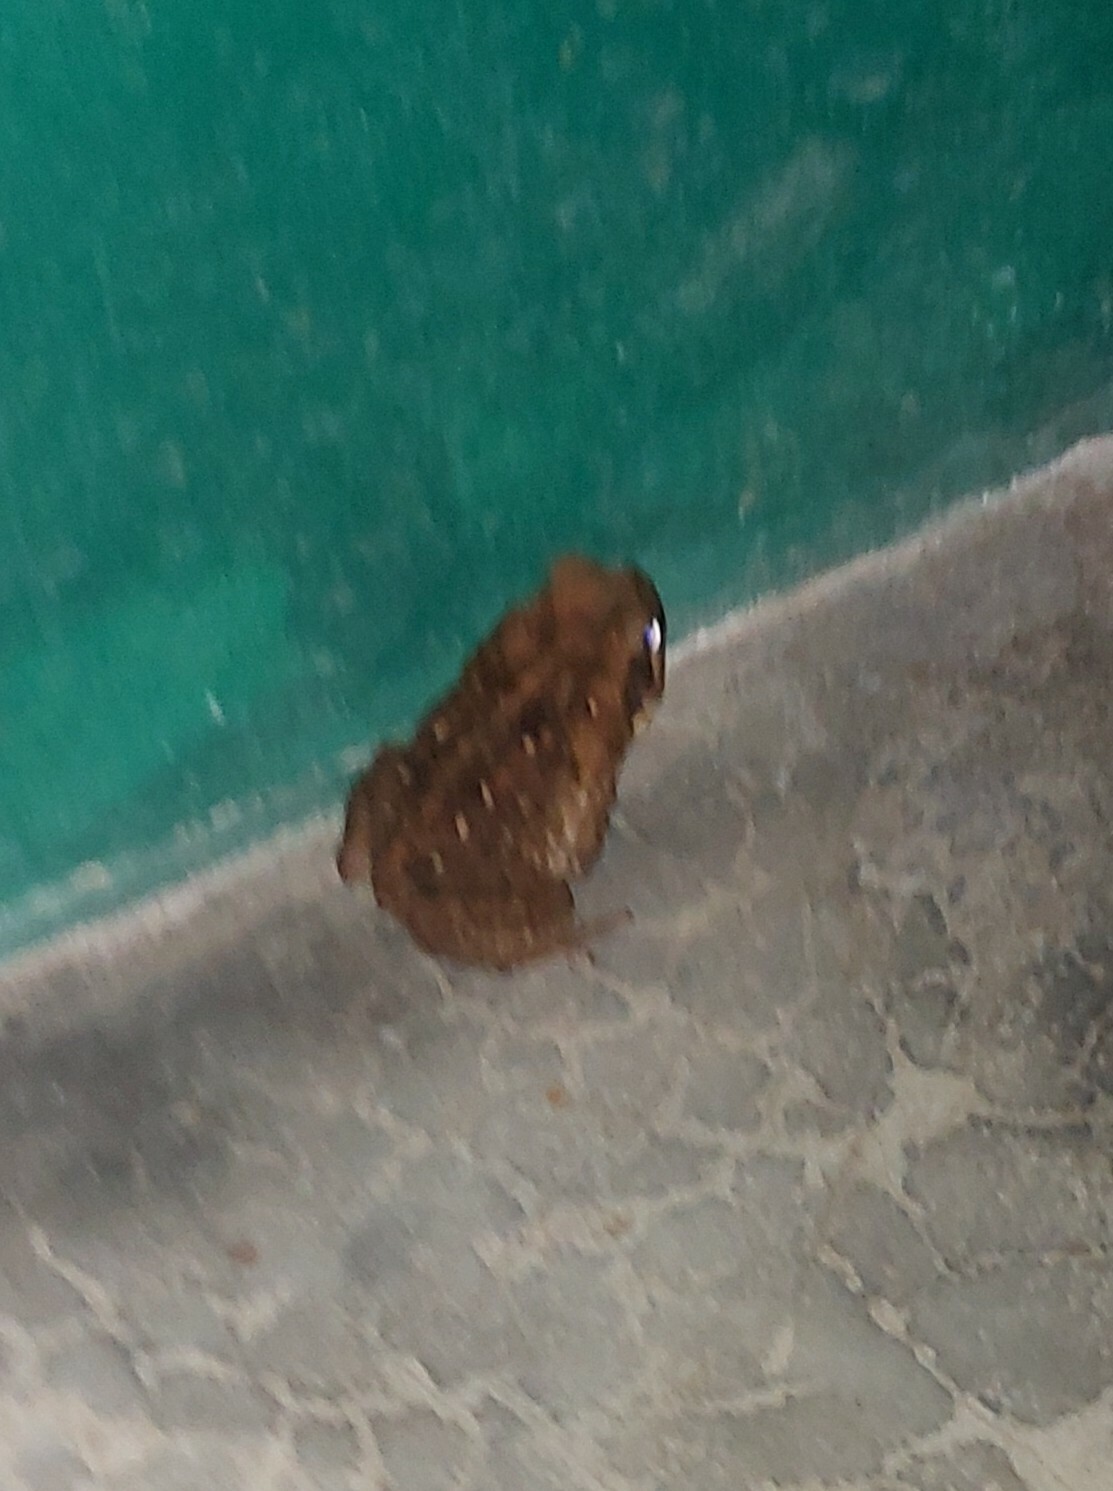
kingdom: Animalia
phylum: Chordata
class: Amphibia
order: Anura
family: Bufonidae
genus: Rhinella
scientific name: Rhinella horribilis
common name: Mesoamerican cane toad
